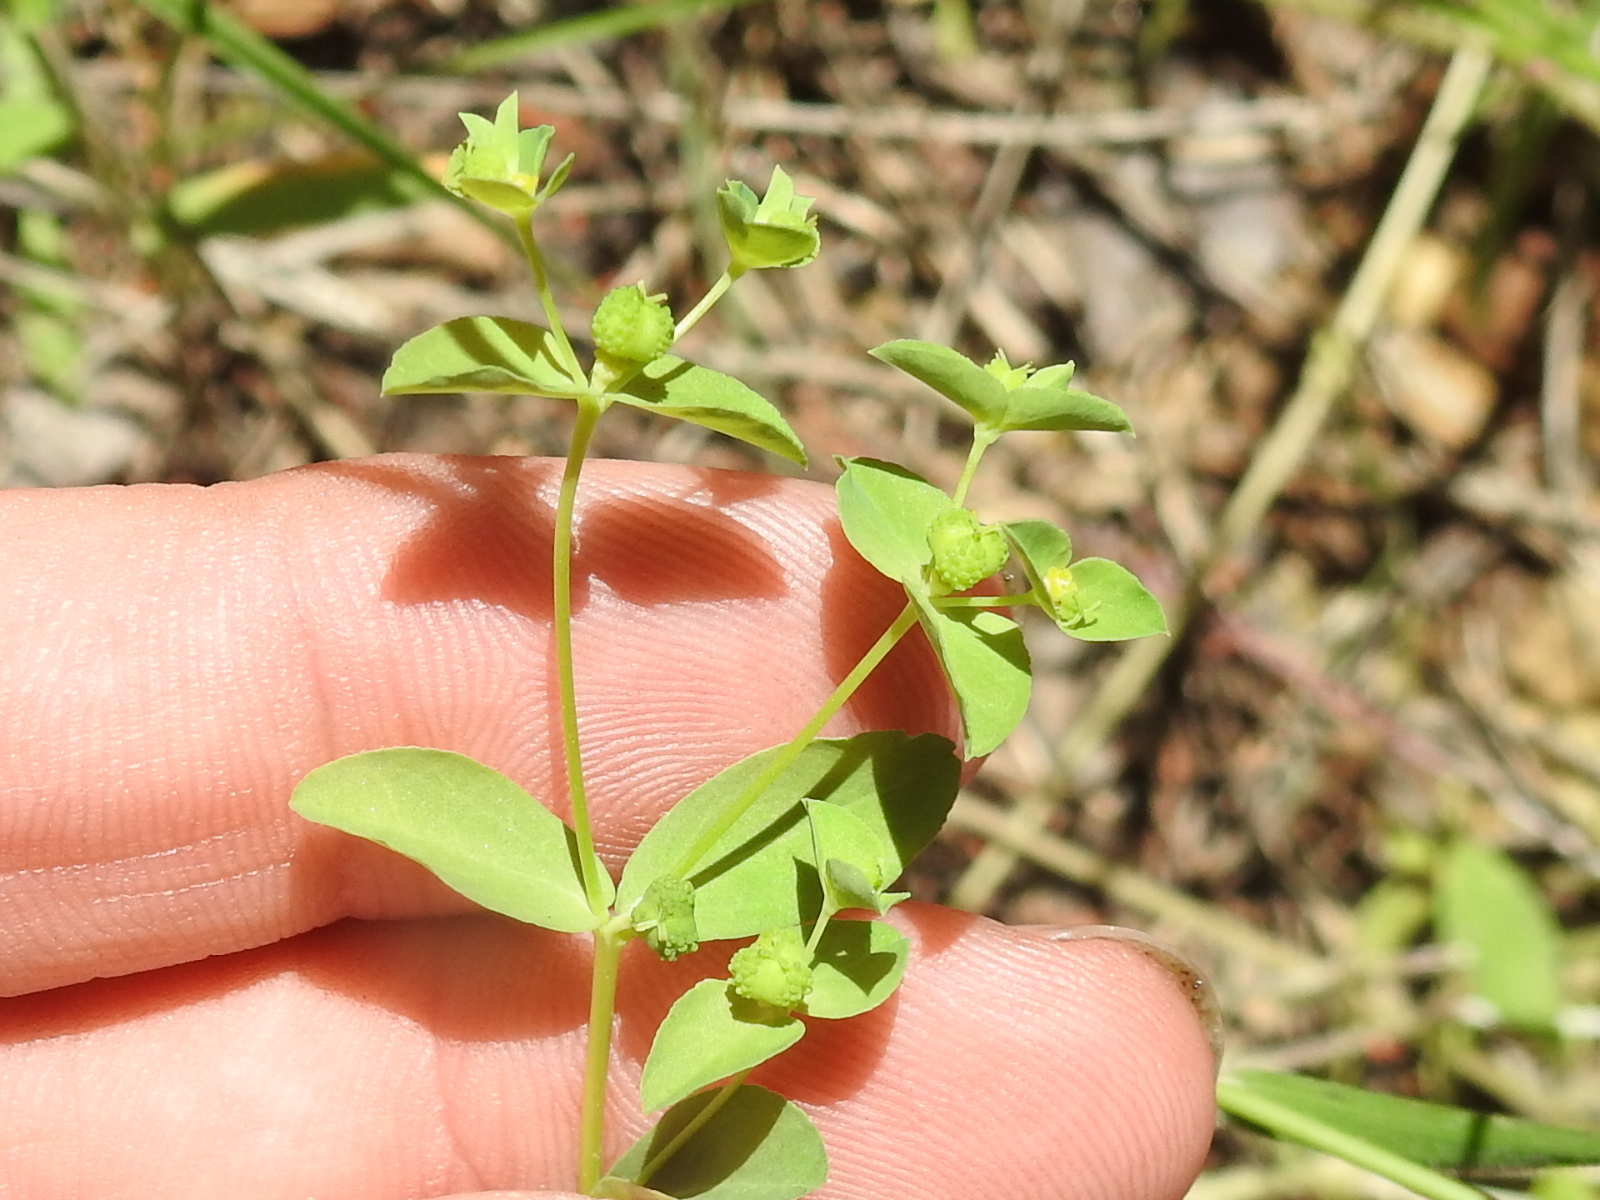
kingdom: Plantae
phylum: Tracheophyta
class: Magnoliopsida
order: Malpighiales
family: Euphorbiaceae
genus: Euphorbia
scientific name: Euphorbia spathulata
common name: Blunt spurge
